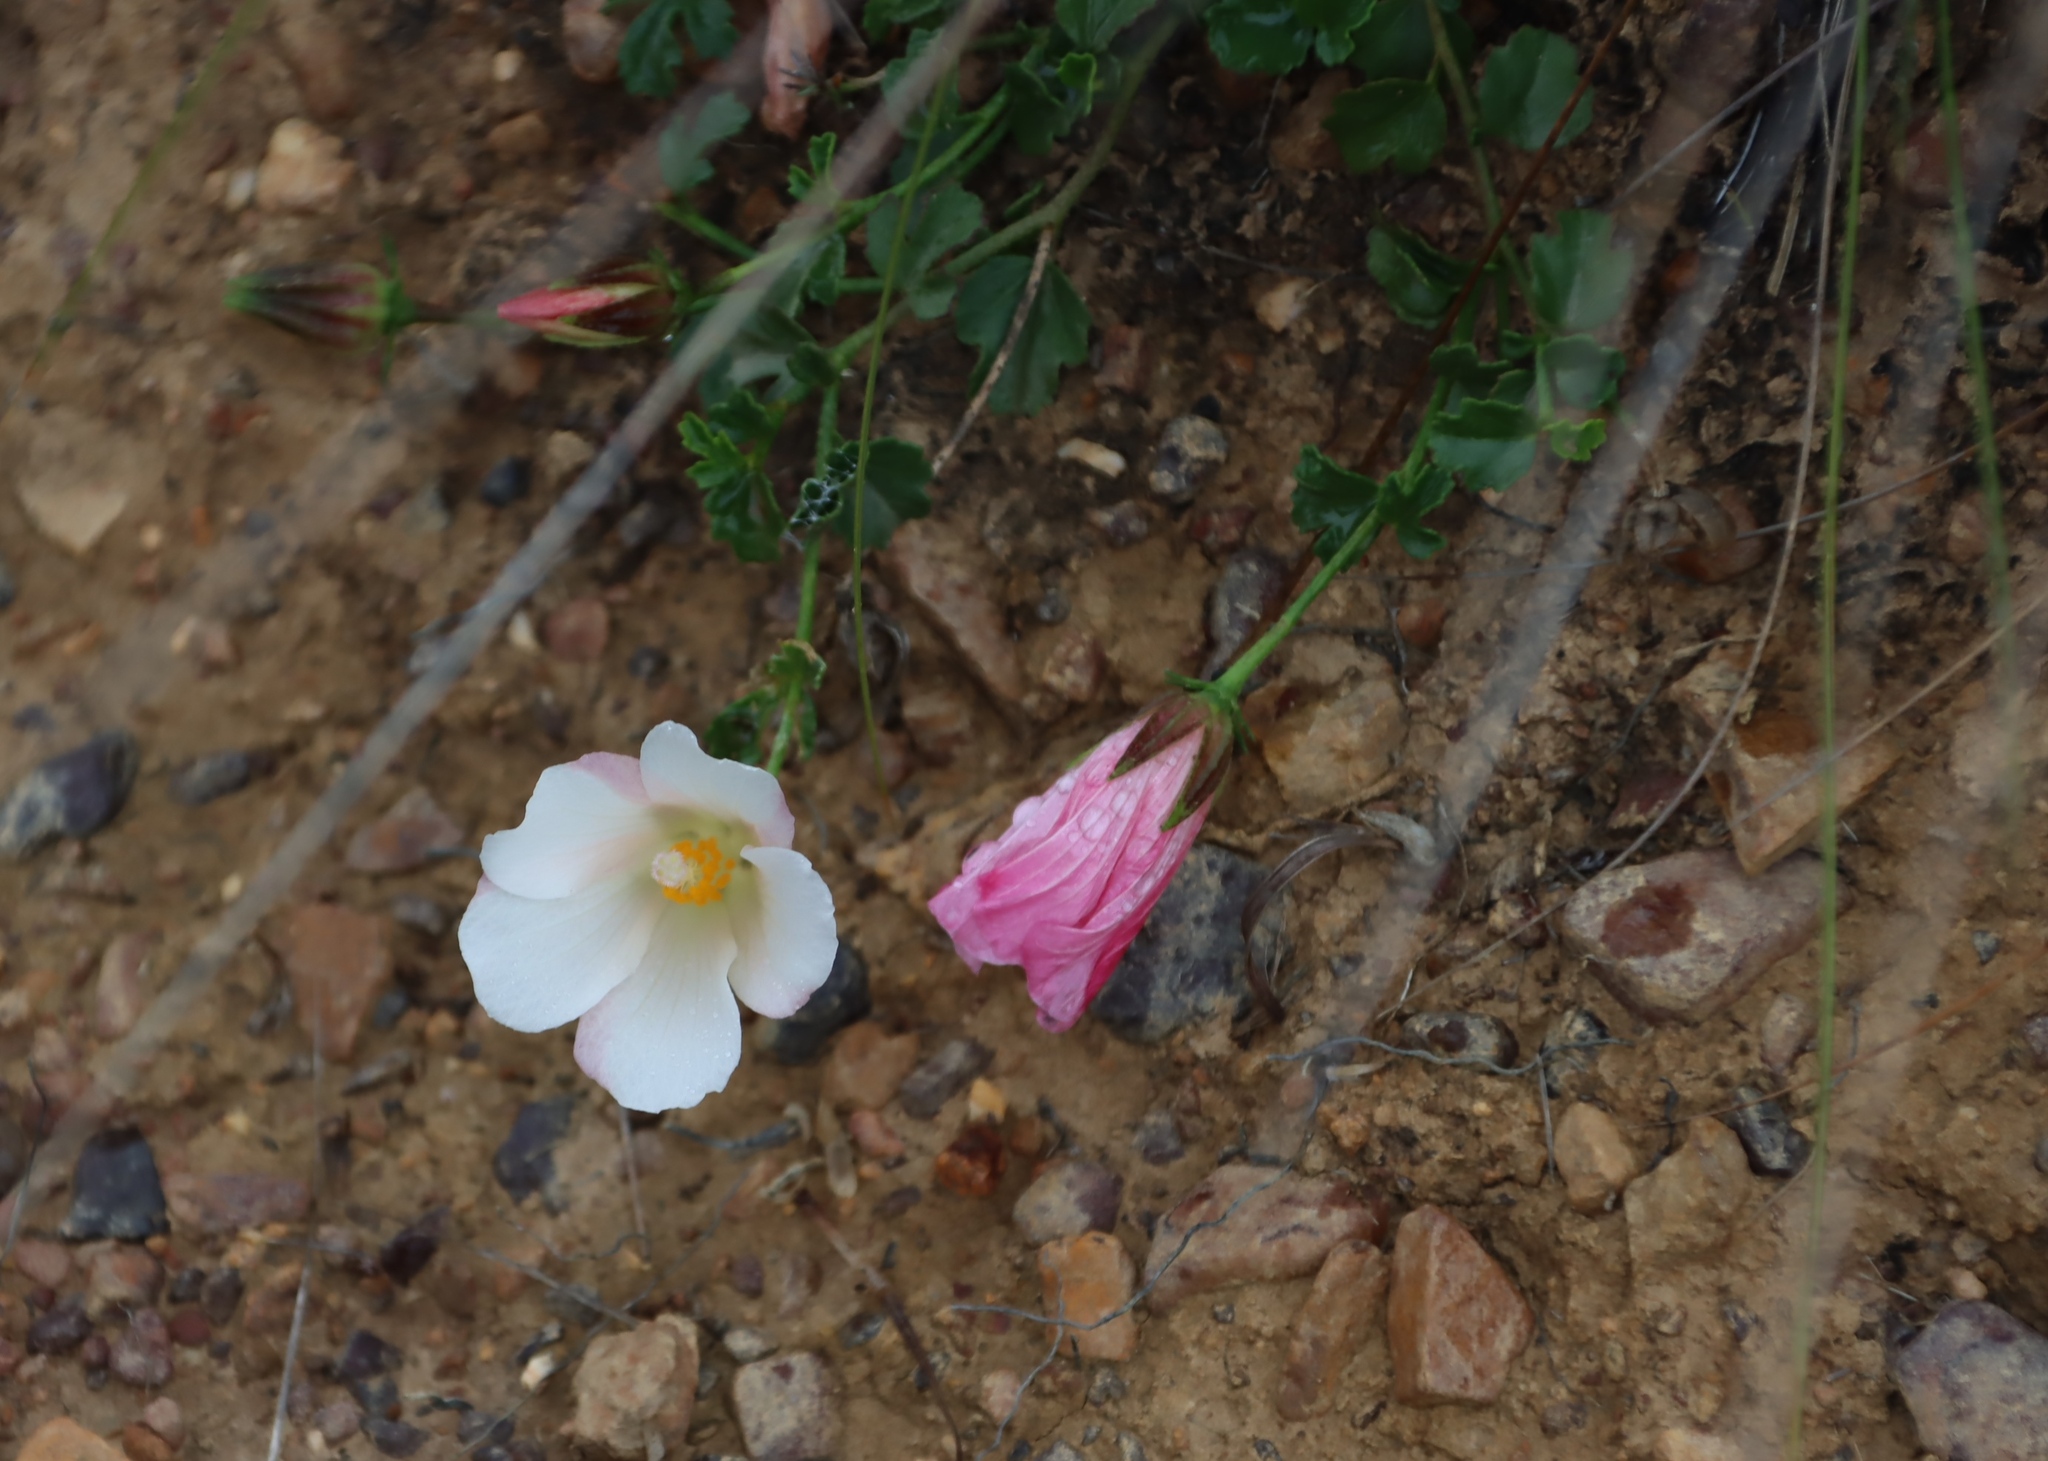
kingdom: Plantae
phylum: Tracheophyta
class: Magnoliopsida
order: Malvales
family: Malvaceae
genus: Hibiscus
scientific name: Hibiscus pusillus
